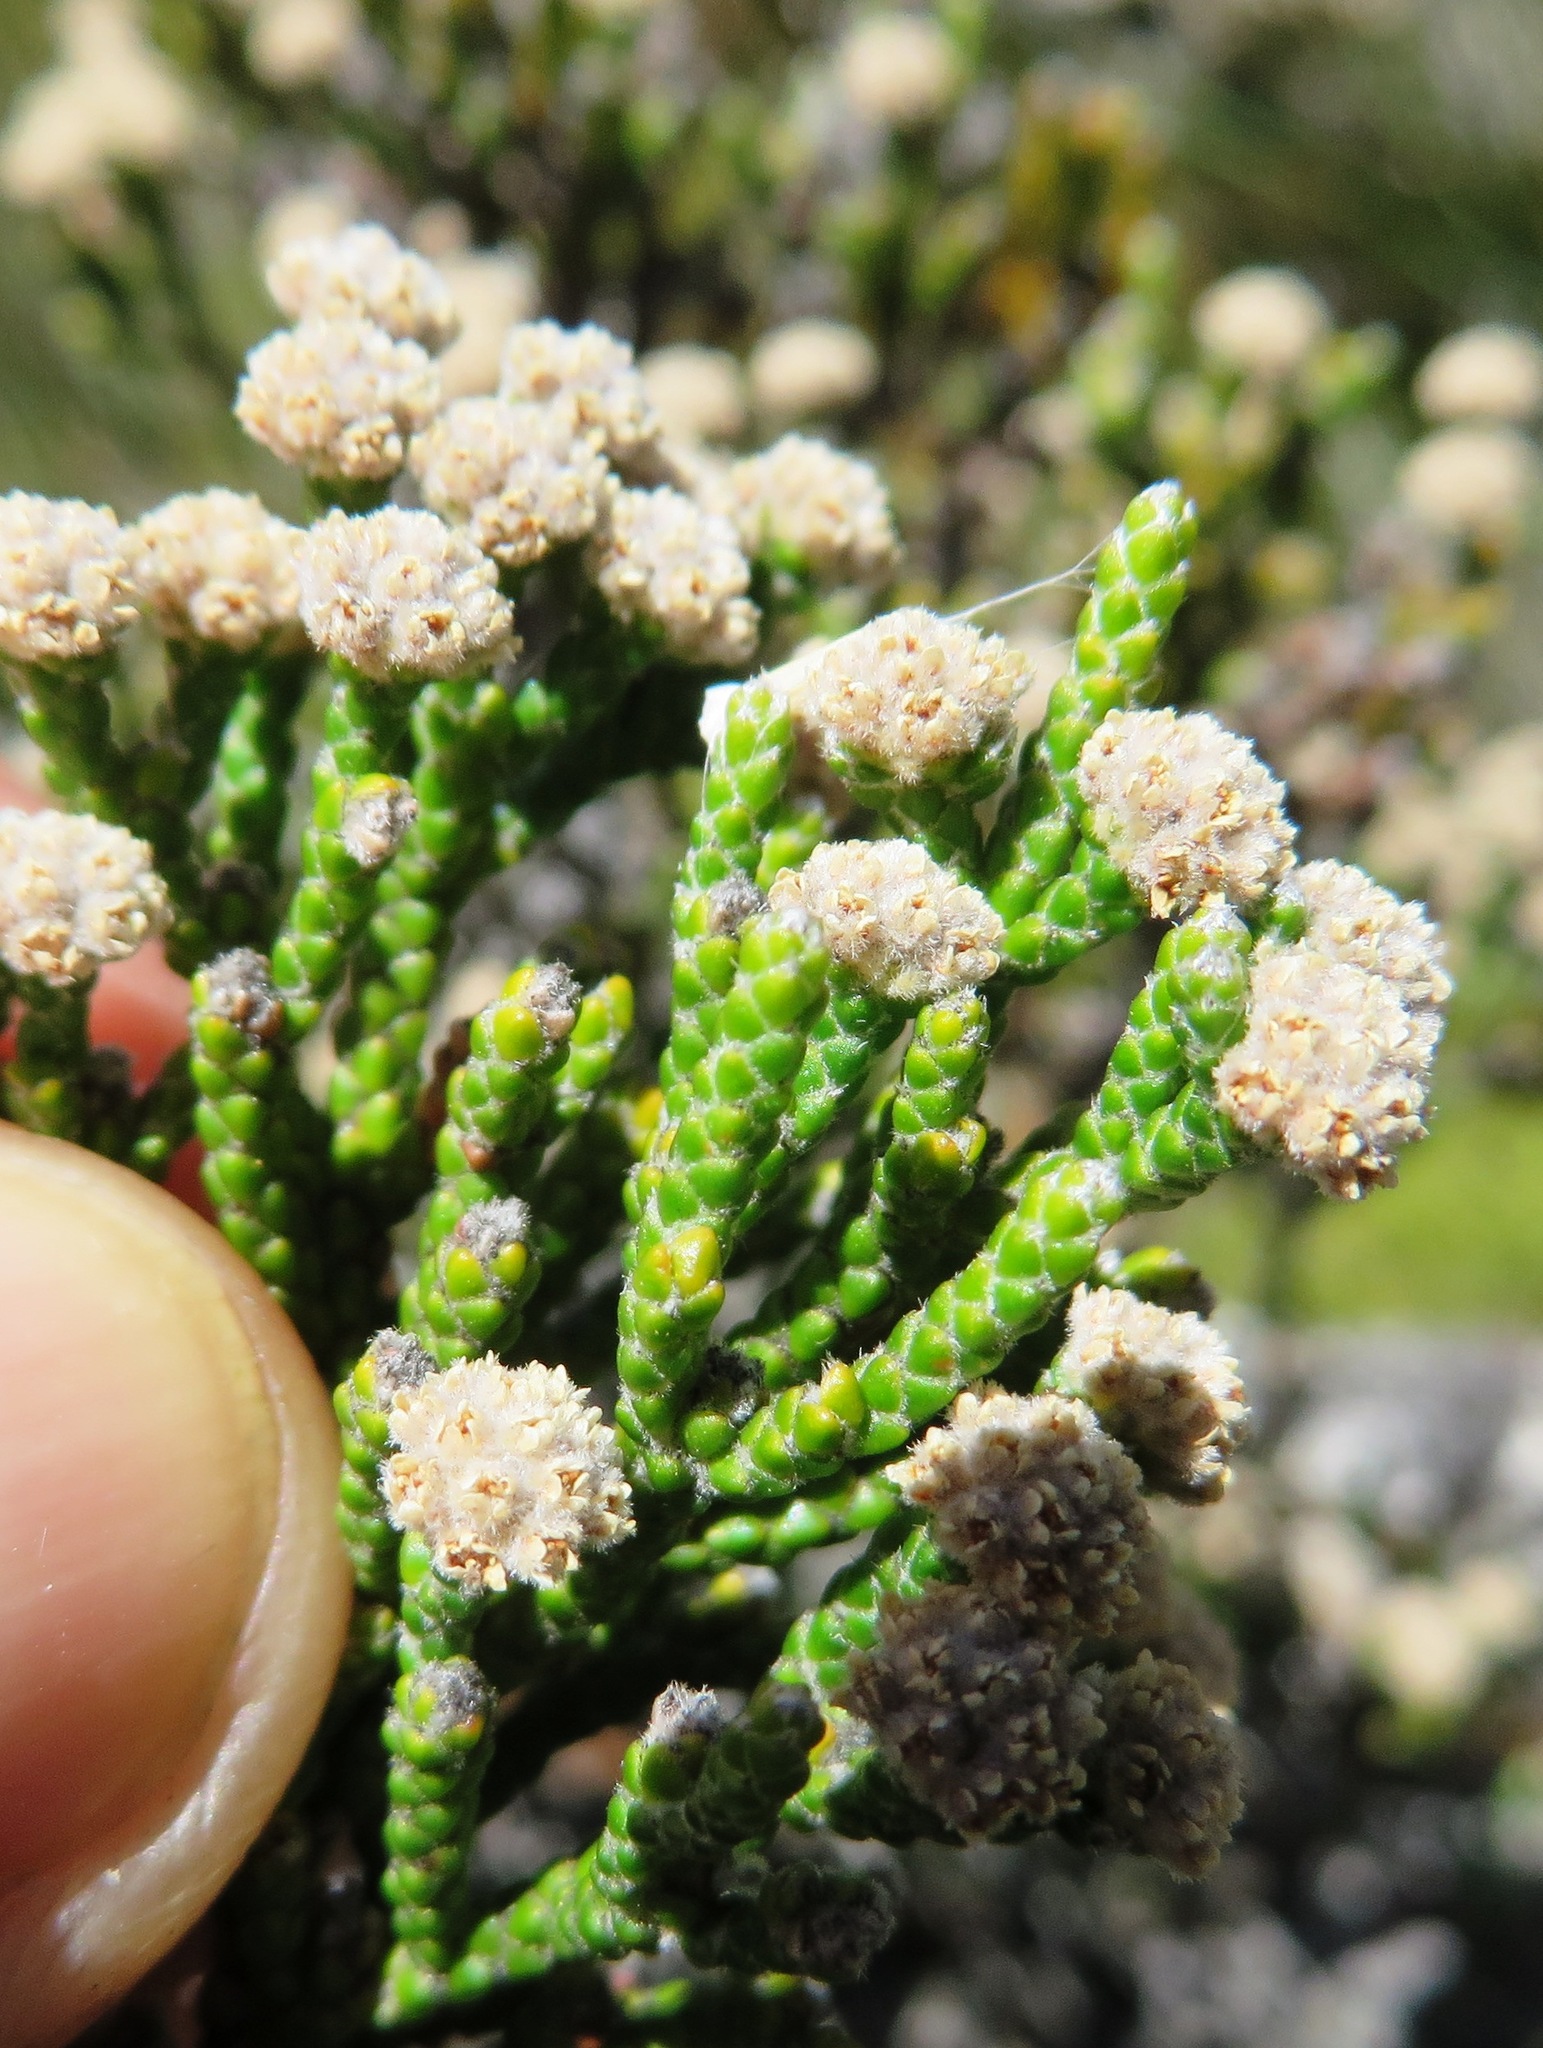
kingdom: Plantae
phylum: Tracheophyta
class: Magnoliopsida
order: Bruniales
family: Bruniaceae
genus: Brunia
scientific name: Brunia microphylla
